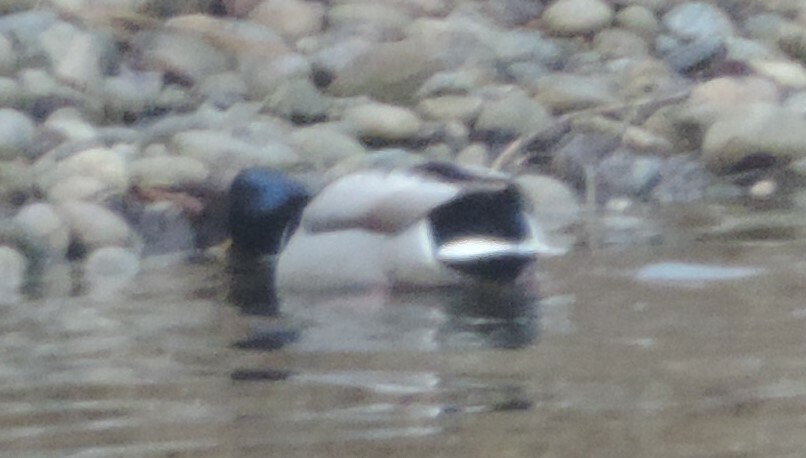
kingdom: Animalia
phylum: Chordata
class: Aves
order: Anseriformes
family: Anatidae
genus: Anas
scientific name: Anas platyrhynchos
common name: Mallard
